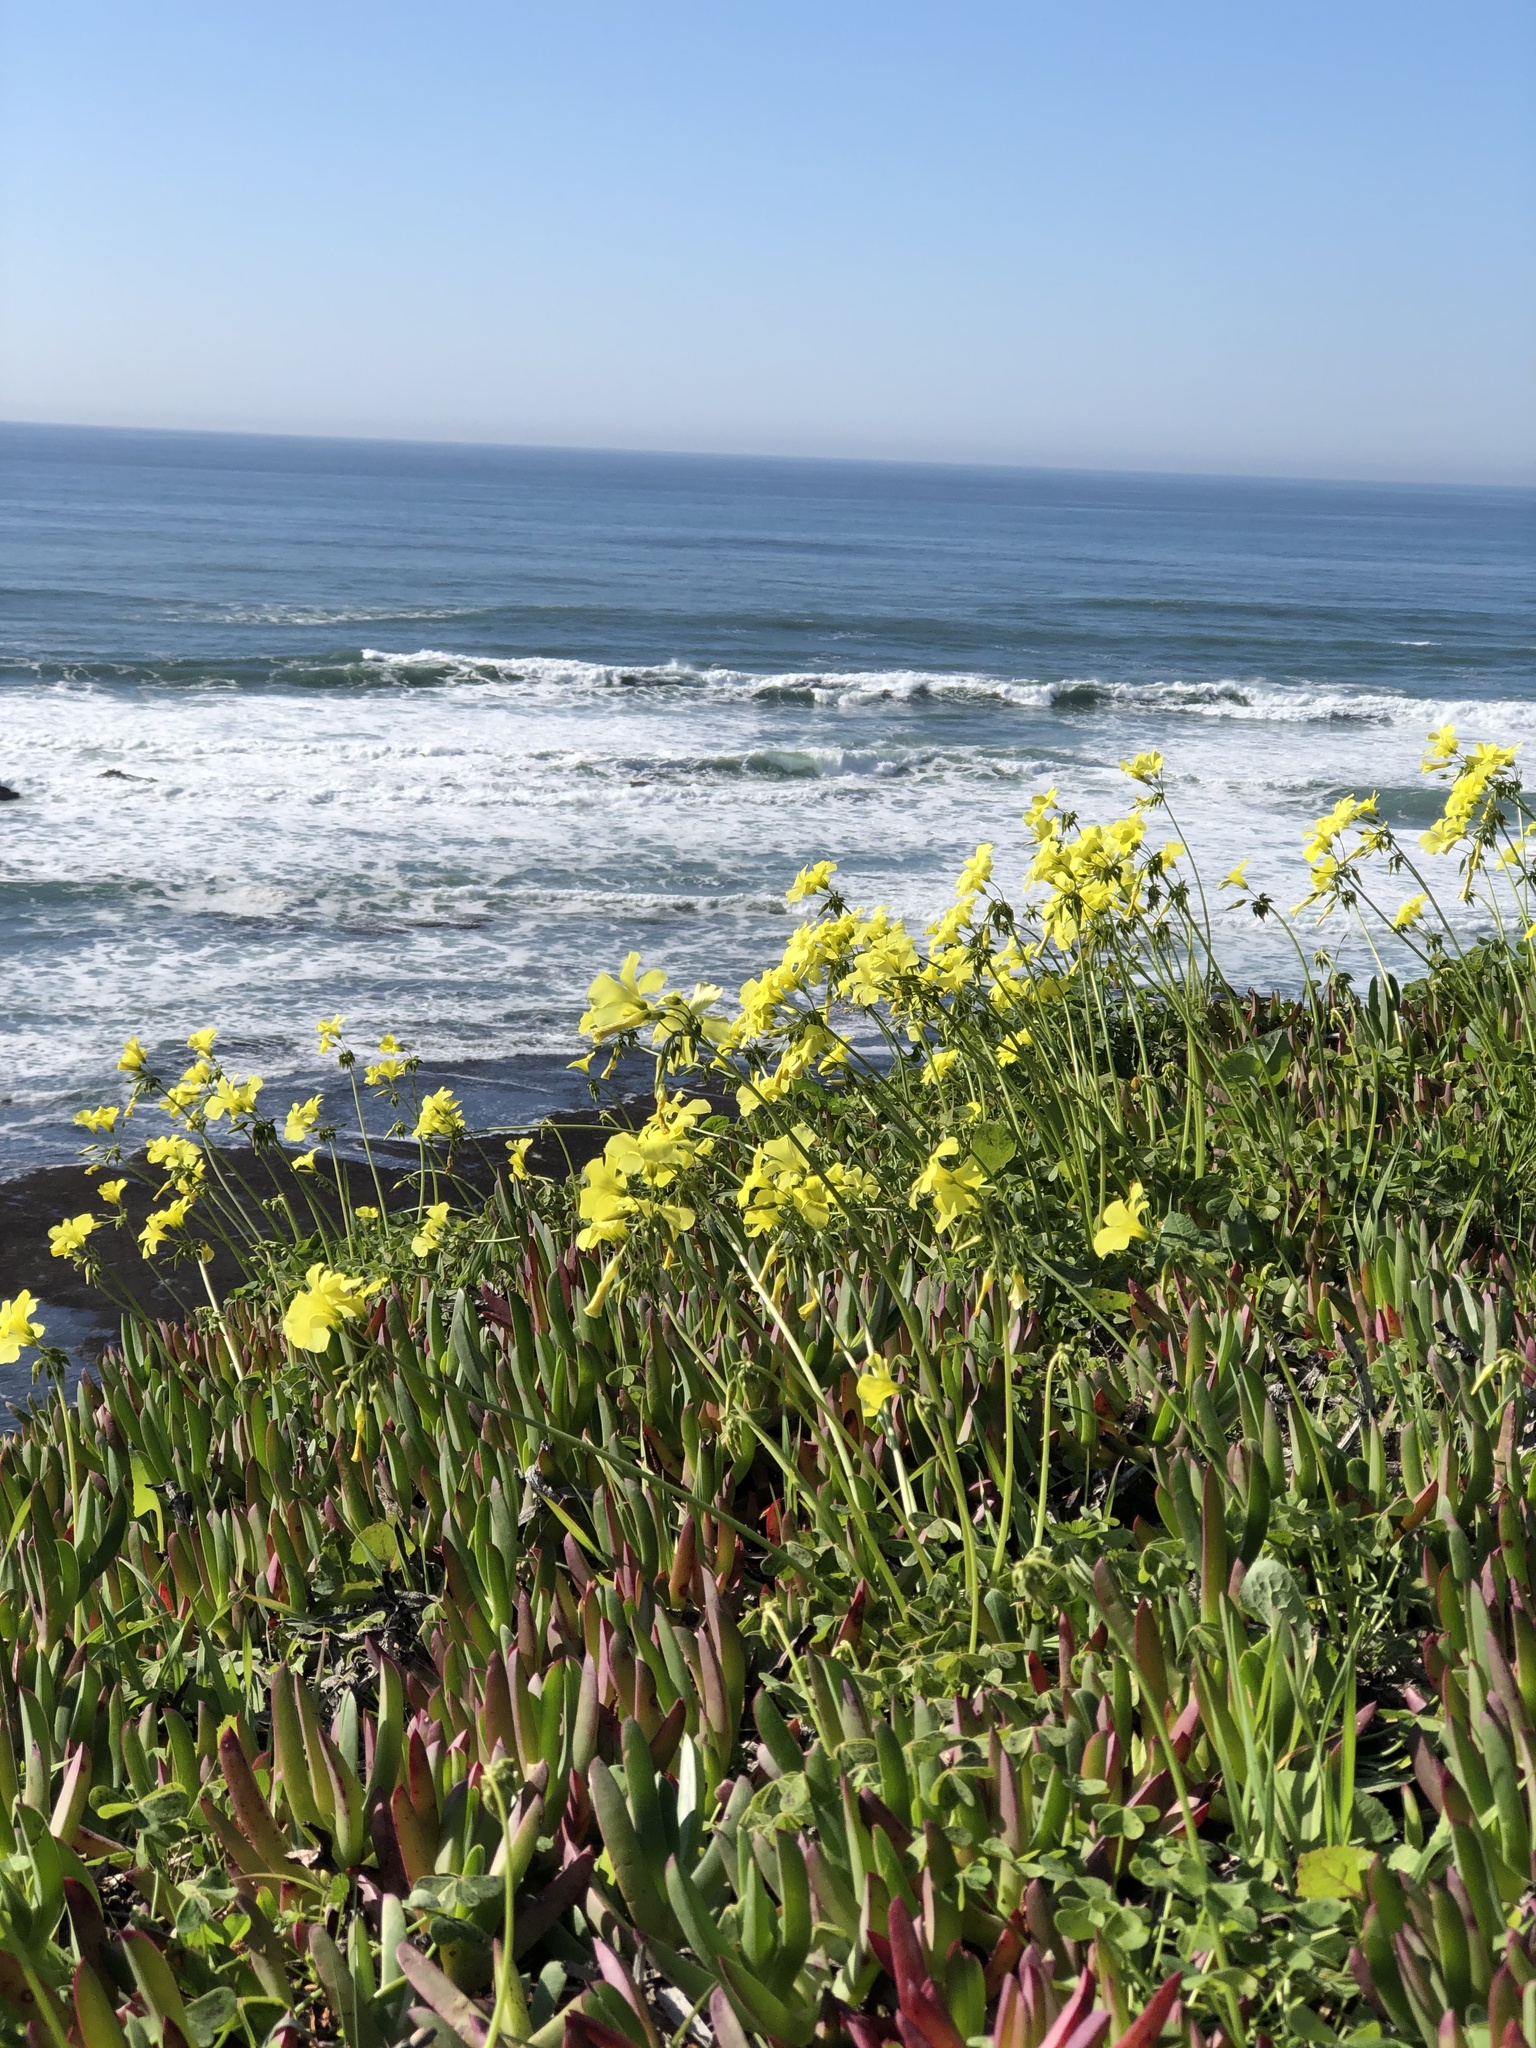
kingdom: Plantae
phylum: Tracheophyta
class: Magnoliopsida
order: Oxalidales
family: Oxalidaceae
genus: Oxalis
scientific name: Oxalis pes-caprae
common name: Bermuda-buttercup
